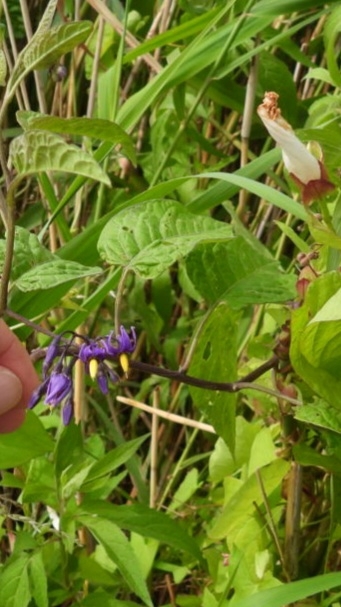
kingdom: Plantae
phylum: Tracheophyta
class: Magnoliopsida
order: Solanales
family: Solanaceae
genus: Solanum
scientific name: Solanum dulcamara
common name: Climbing nightshade
